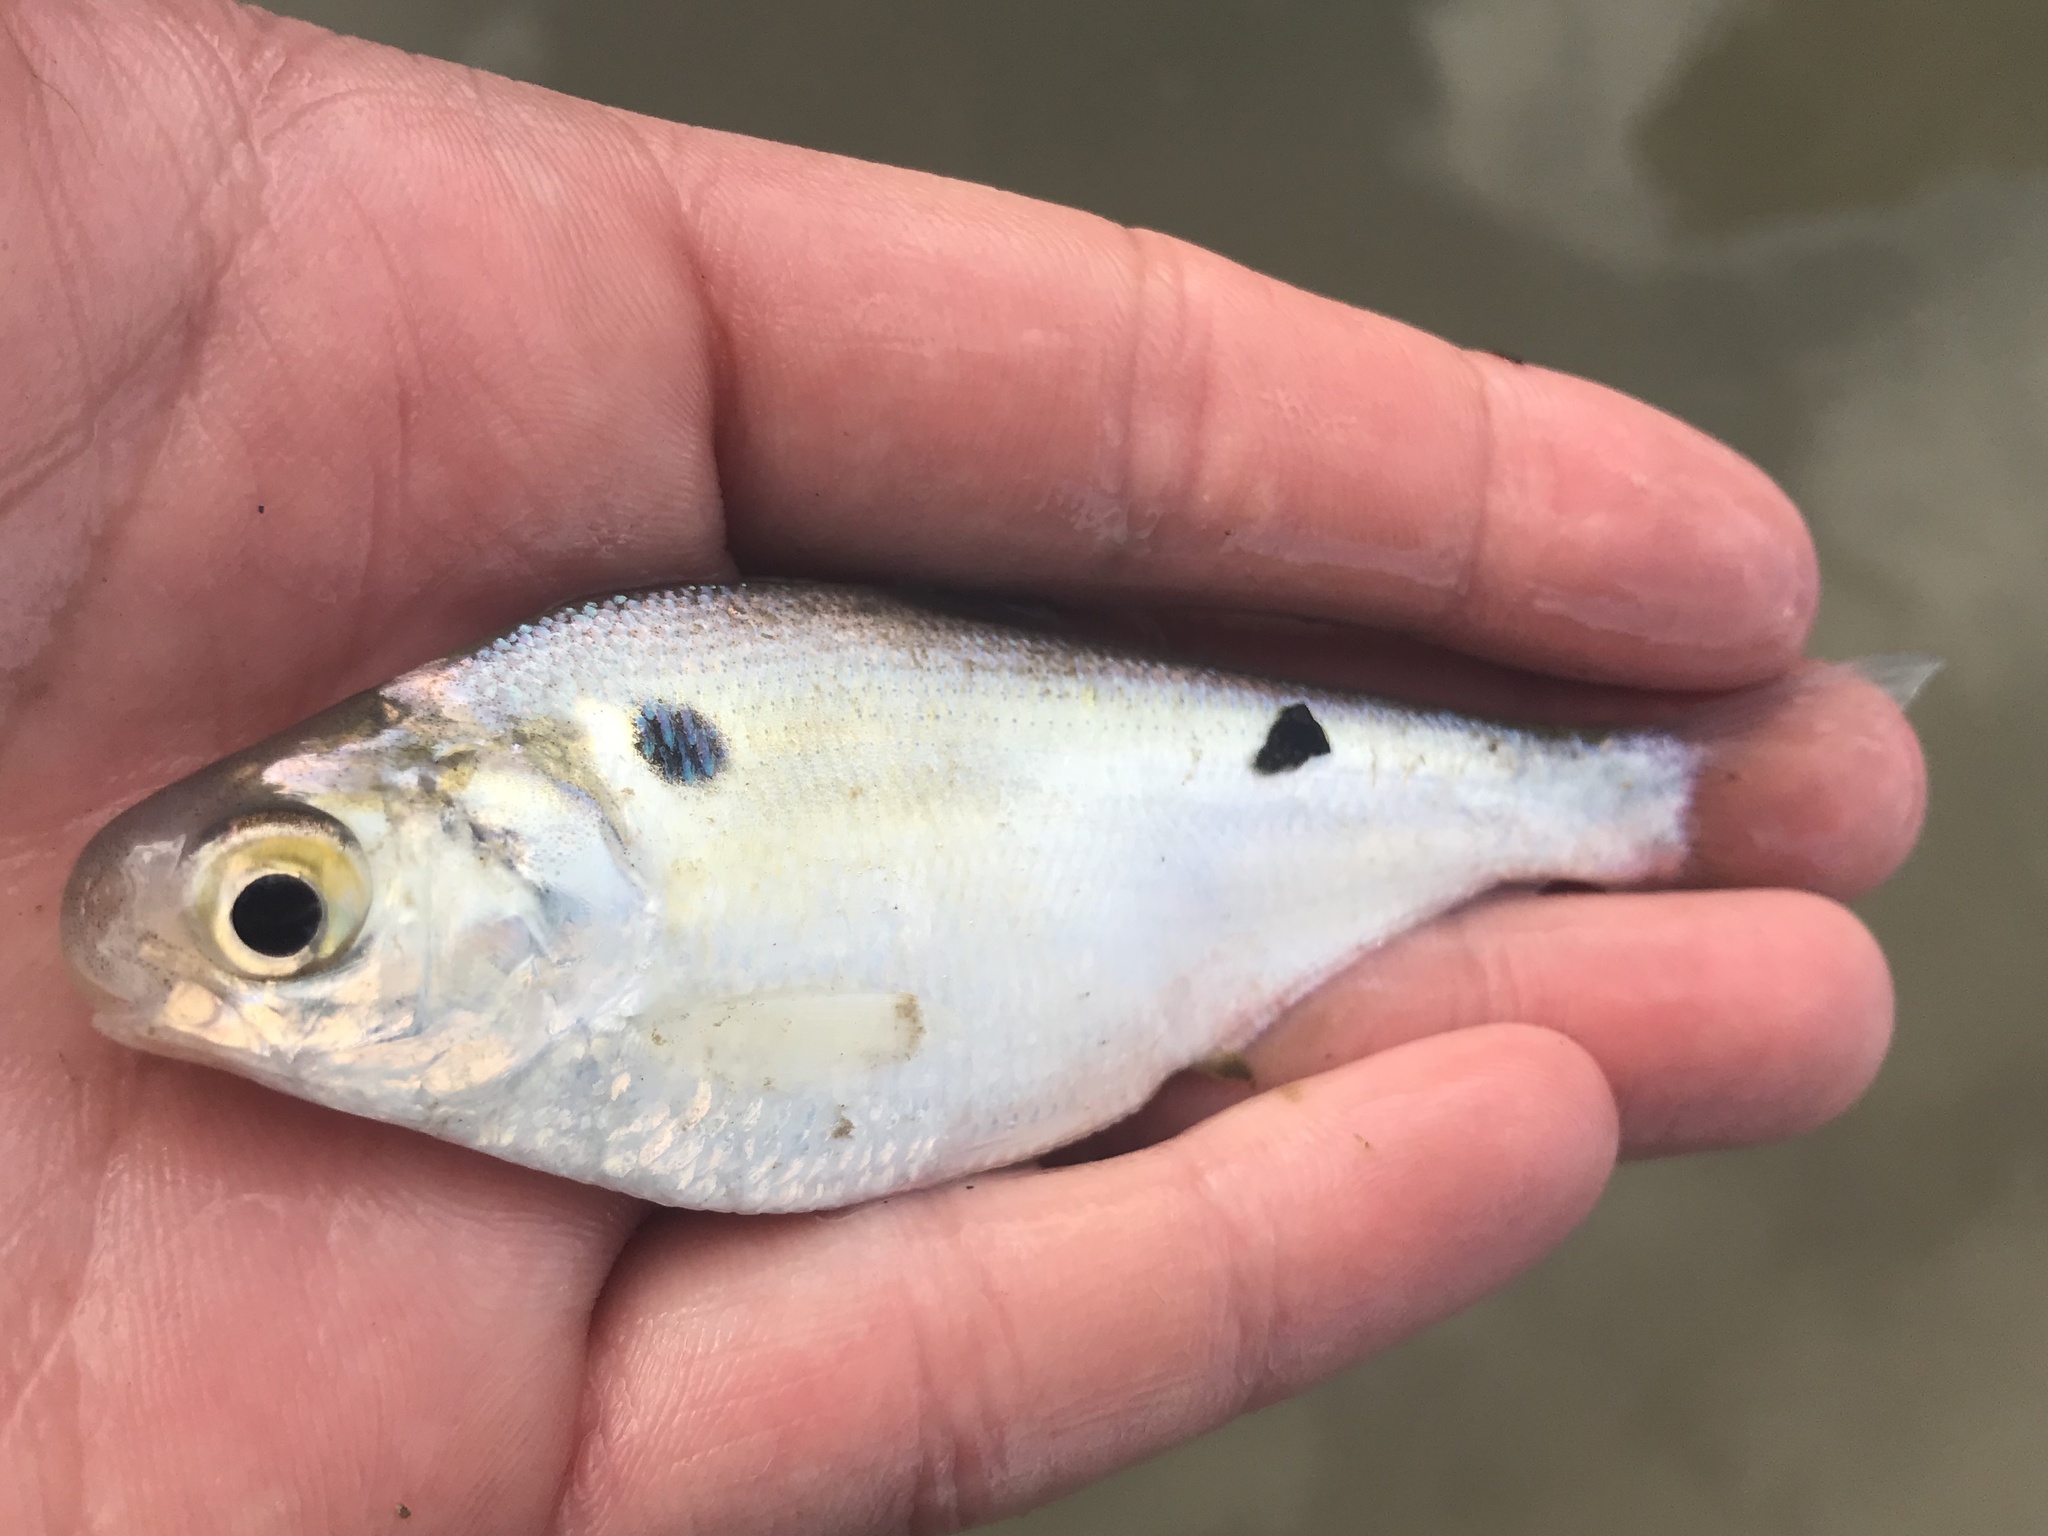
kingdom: Animalia
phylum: Chordata
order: Clupeiformes
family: Clupeidae
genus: Dorosoma
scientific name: Dorosoma cepedianum
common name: Gizzard shad
